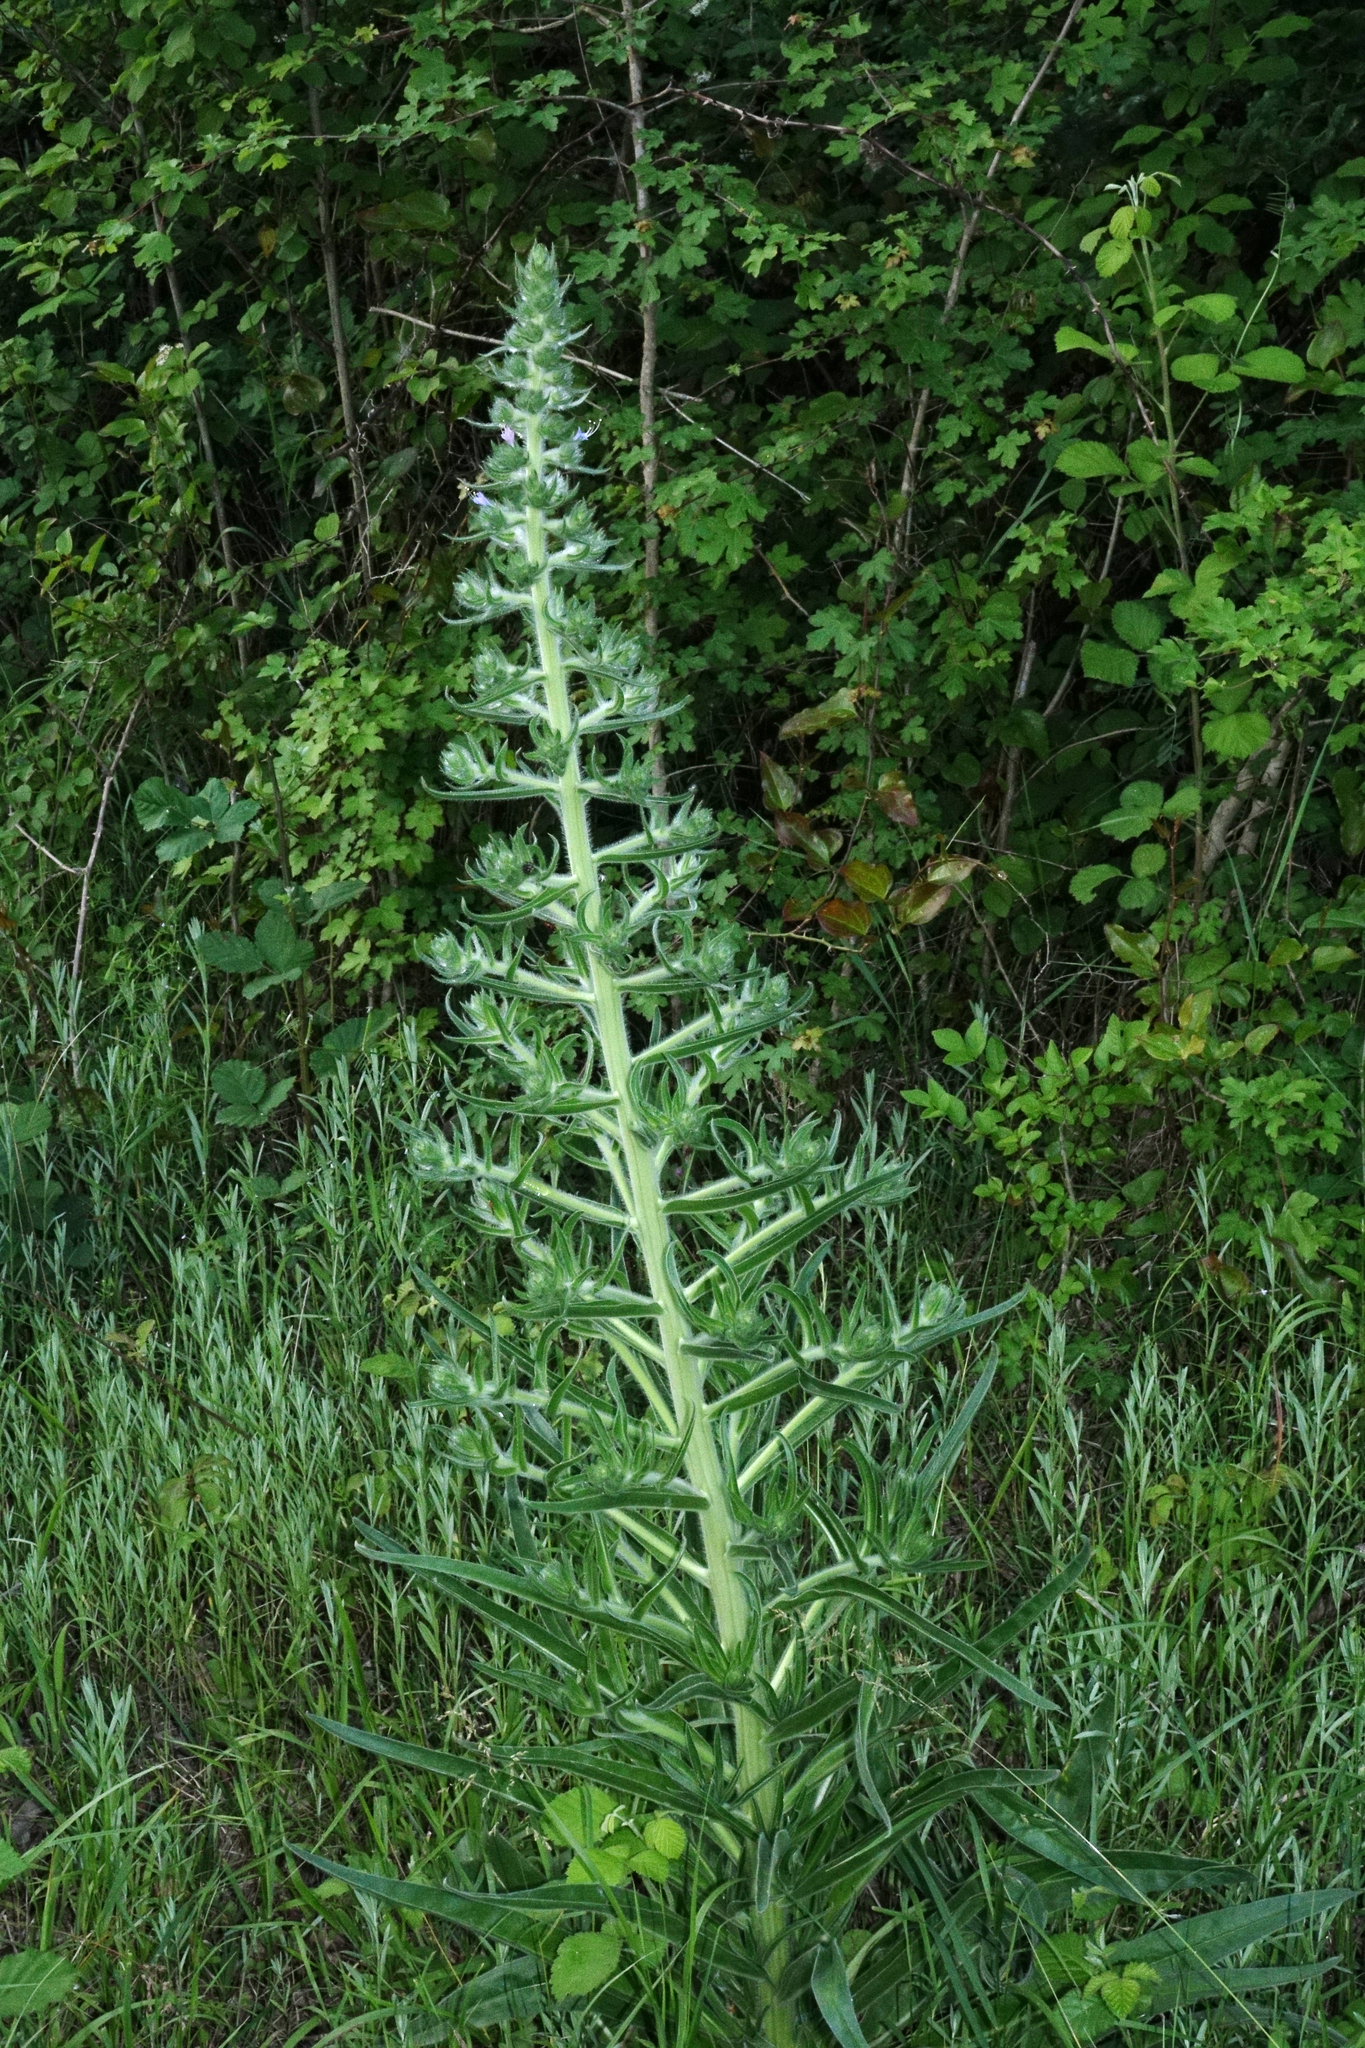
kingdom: Plantae
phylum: Tracheophyta
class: Magnoliopsida
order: Boraginales
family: Boraginaceae
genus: Echium
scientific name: Echium italicum
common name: Italian viper's bugloss
